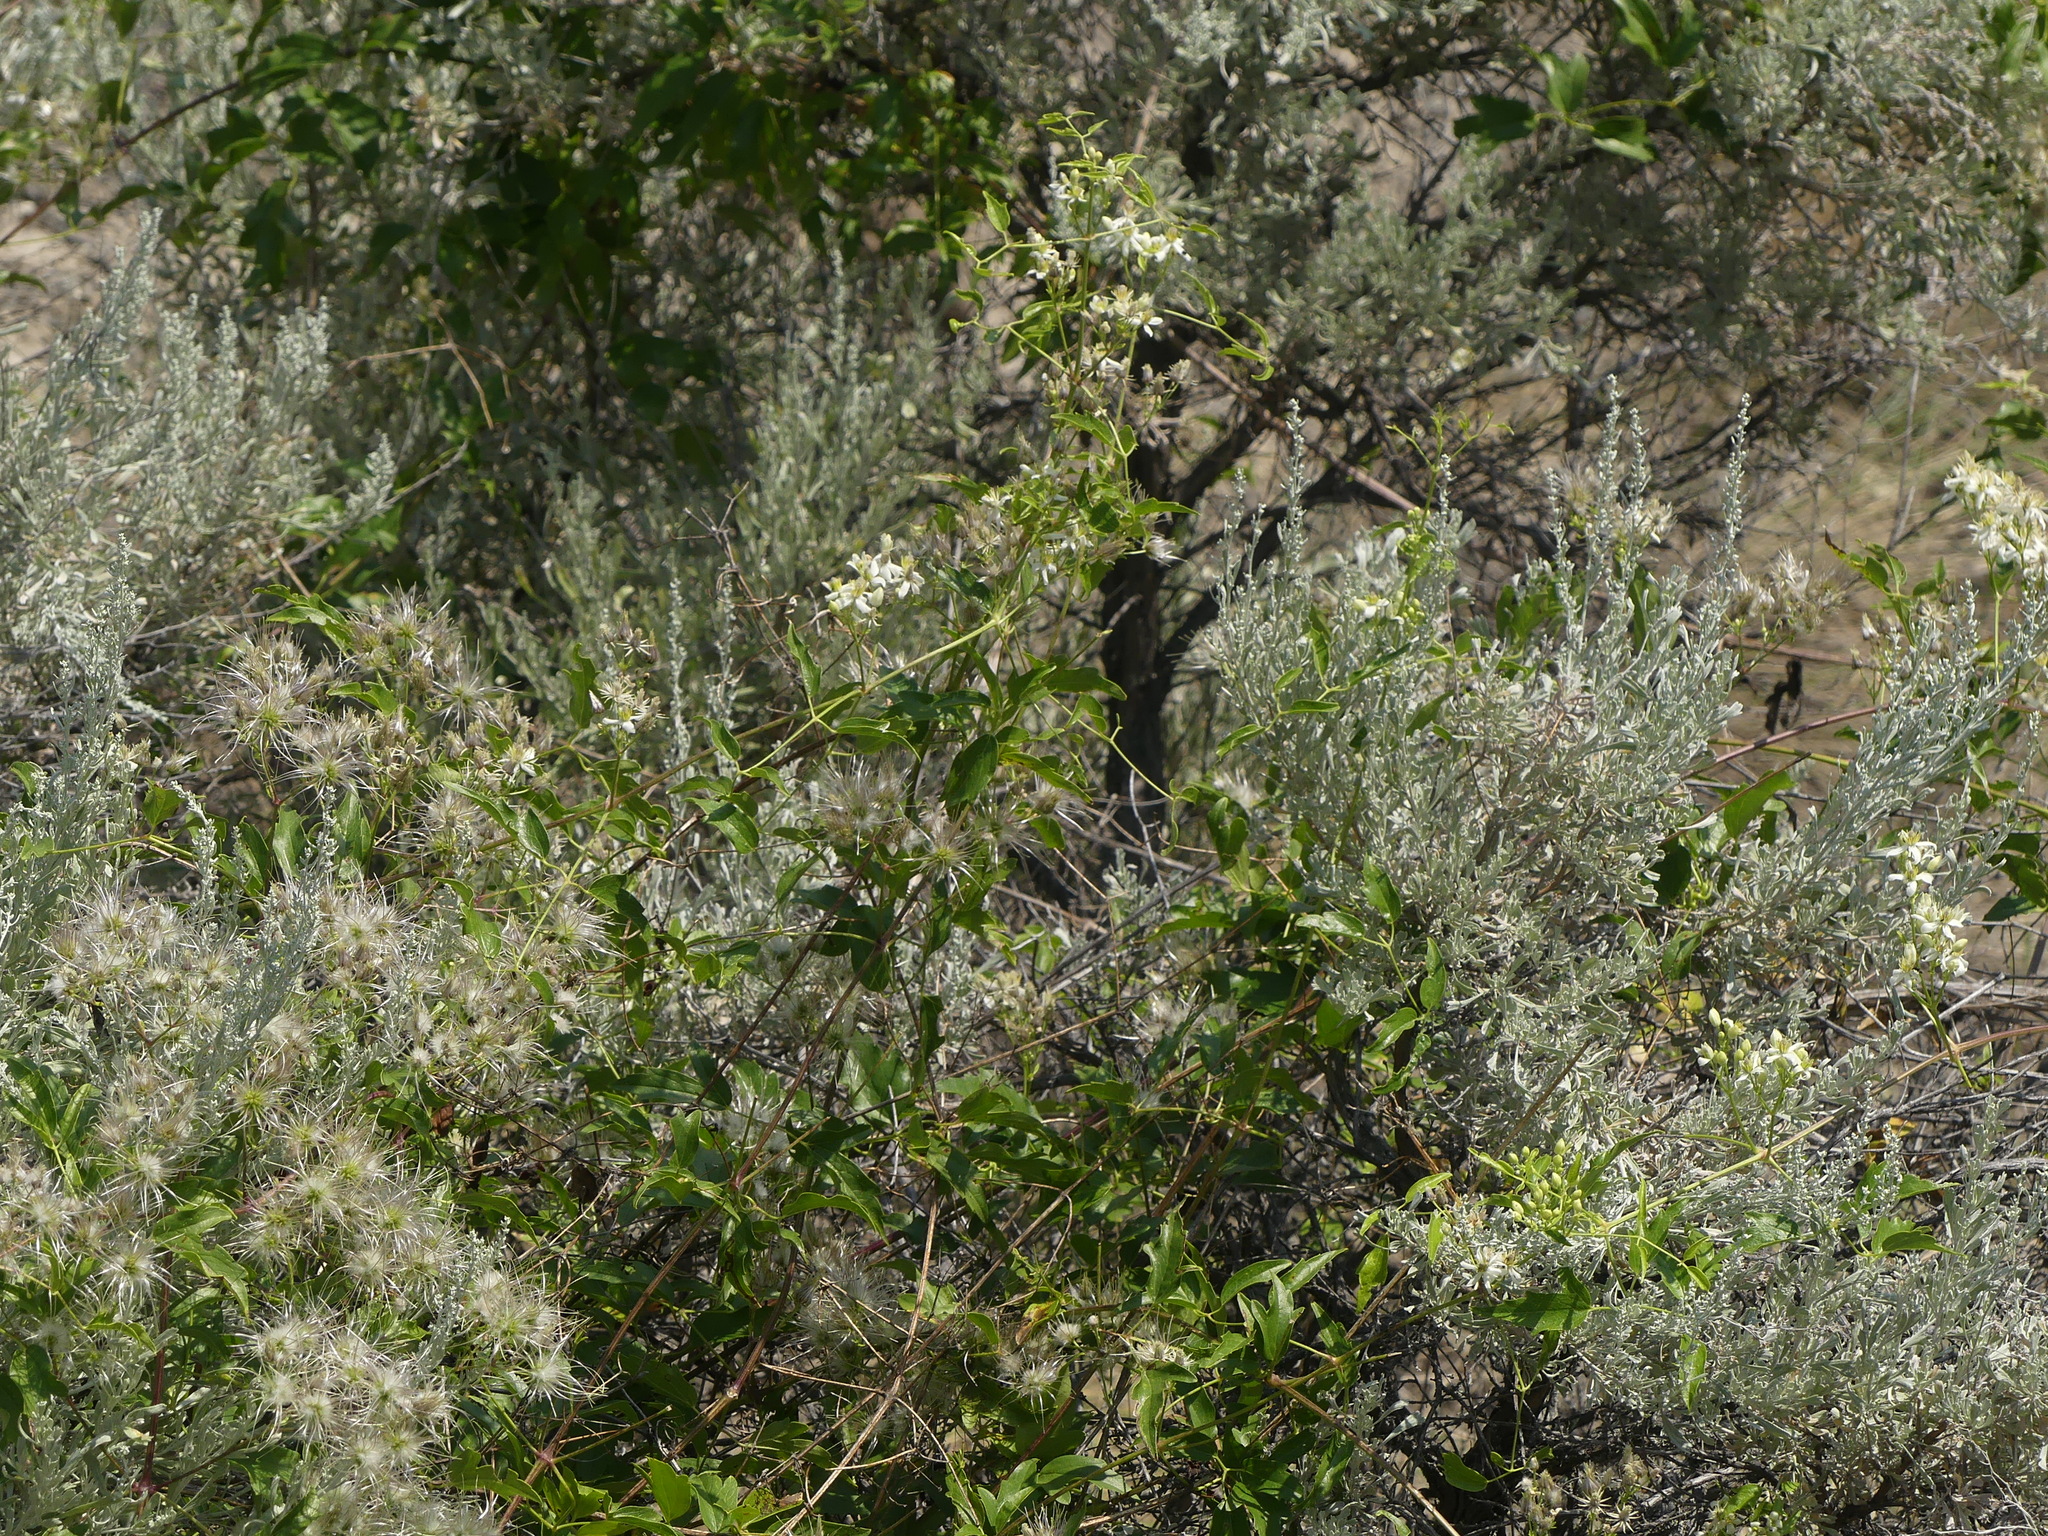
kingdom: Plantae
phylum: Tracheophyta
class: Magnoliopsida
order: Ranunculales
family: Ranunculaceae
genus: Clematis
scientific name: Clematis ligusticifolia
